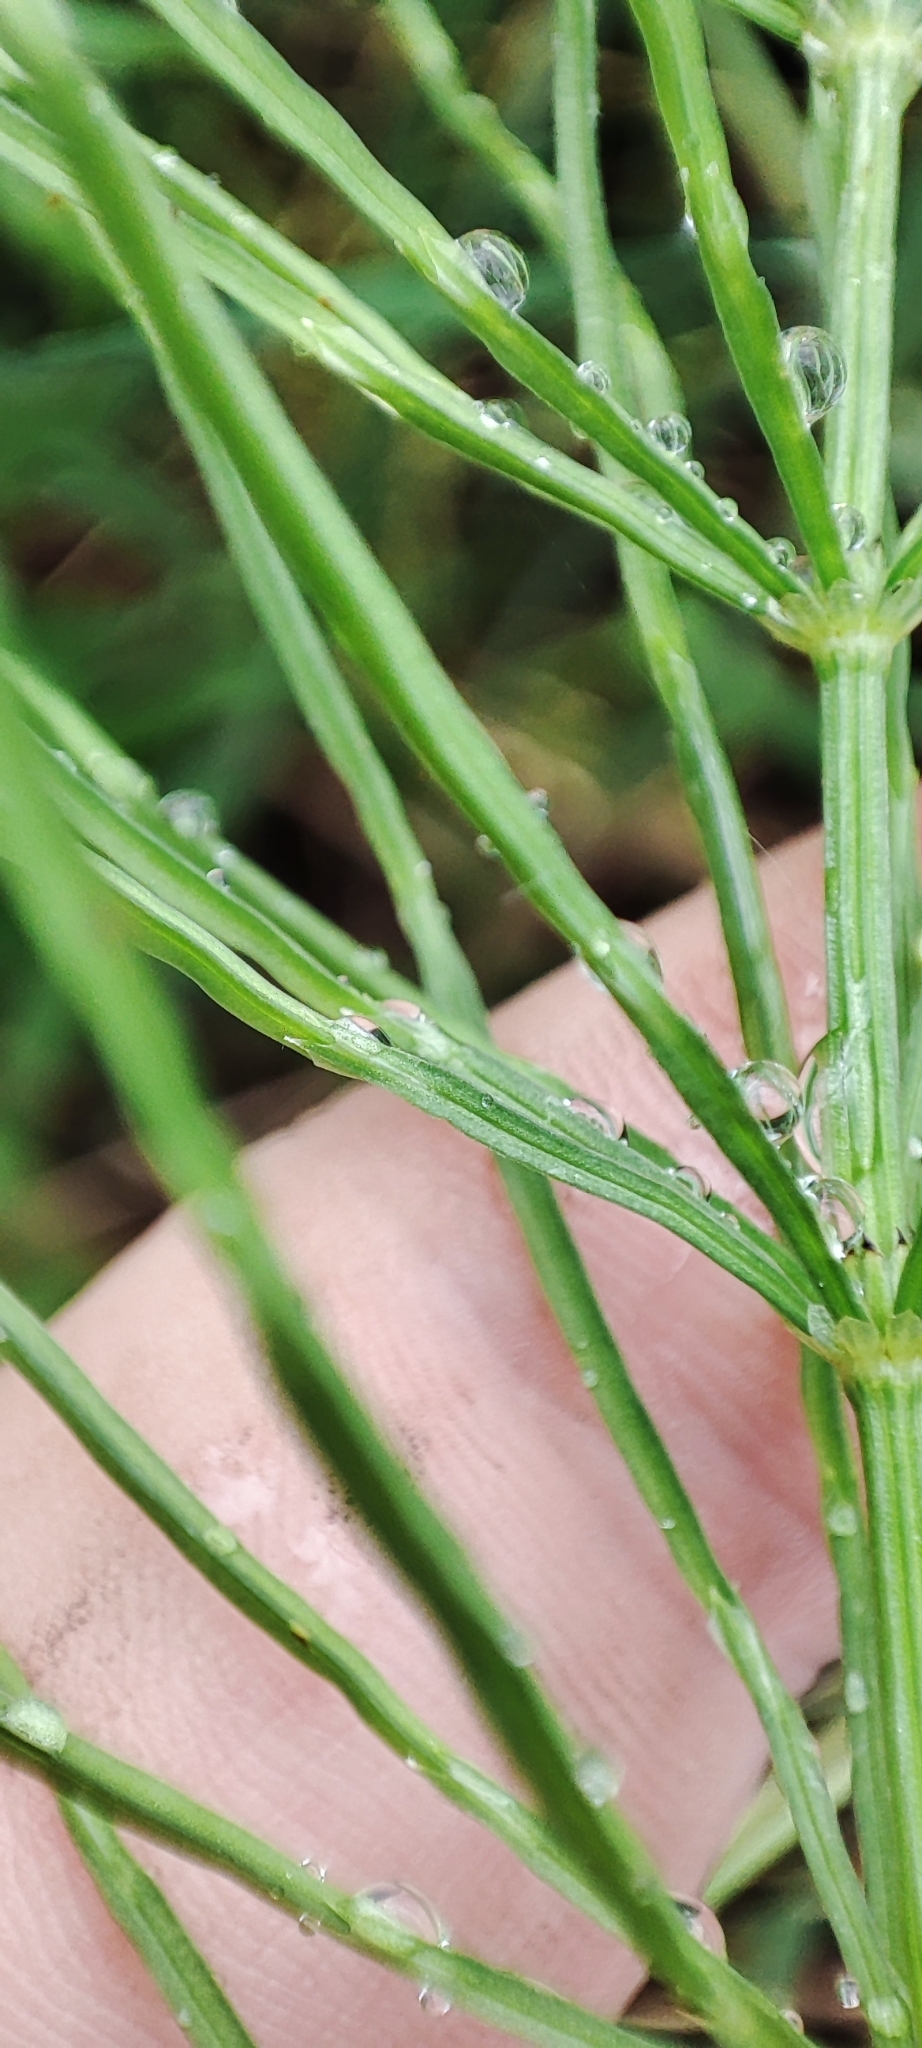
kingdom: Plantae
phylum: Tracheophyta
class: Polypodiopsida
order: Equisetales
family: Equisetaceae
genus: Equisetum
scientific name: Equisetum arvense
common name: Field horsetail
